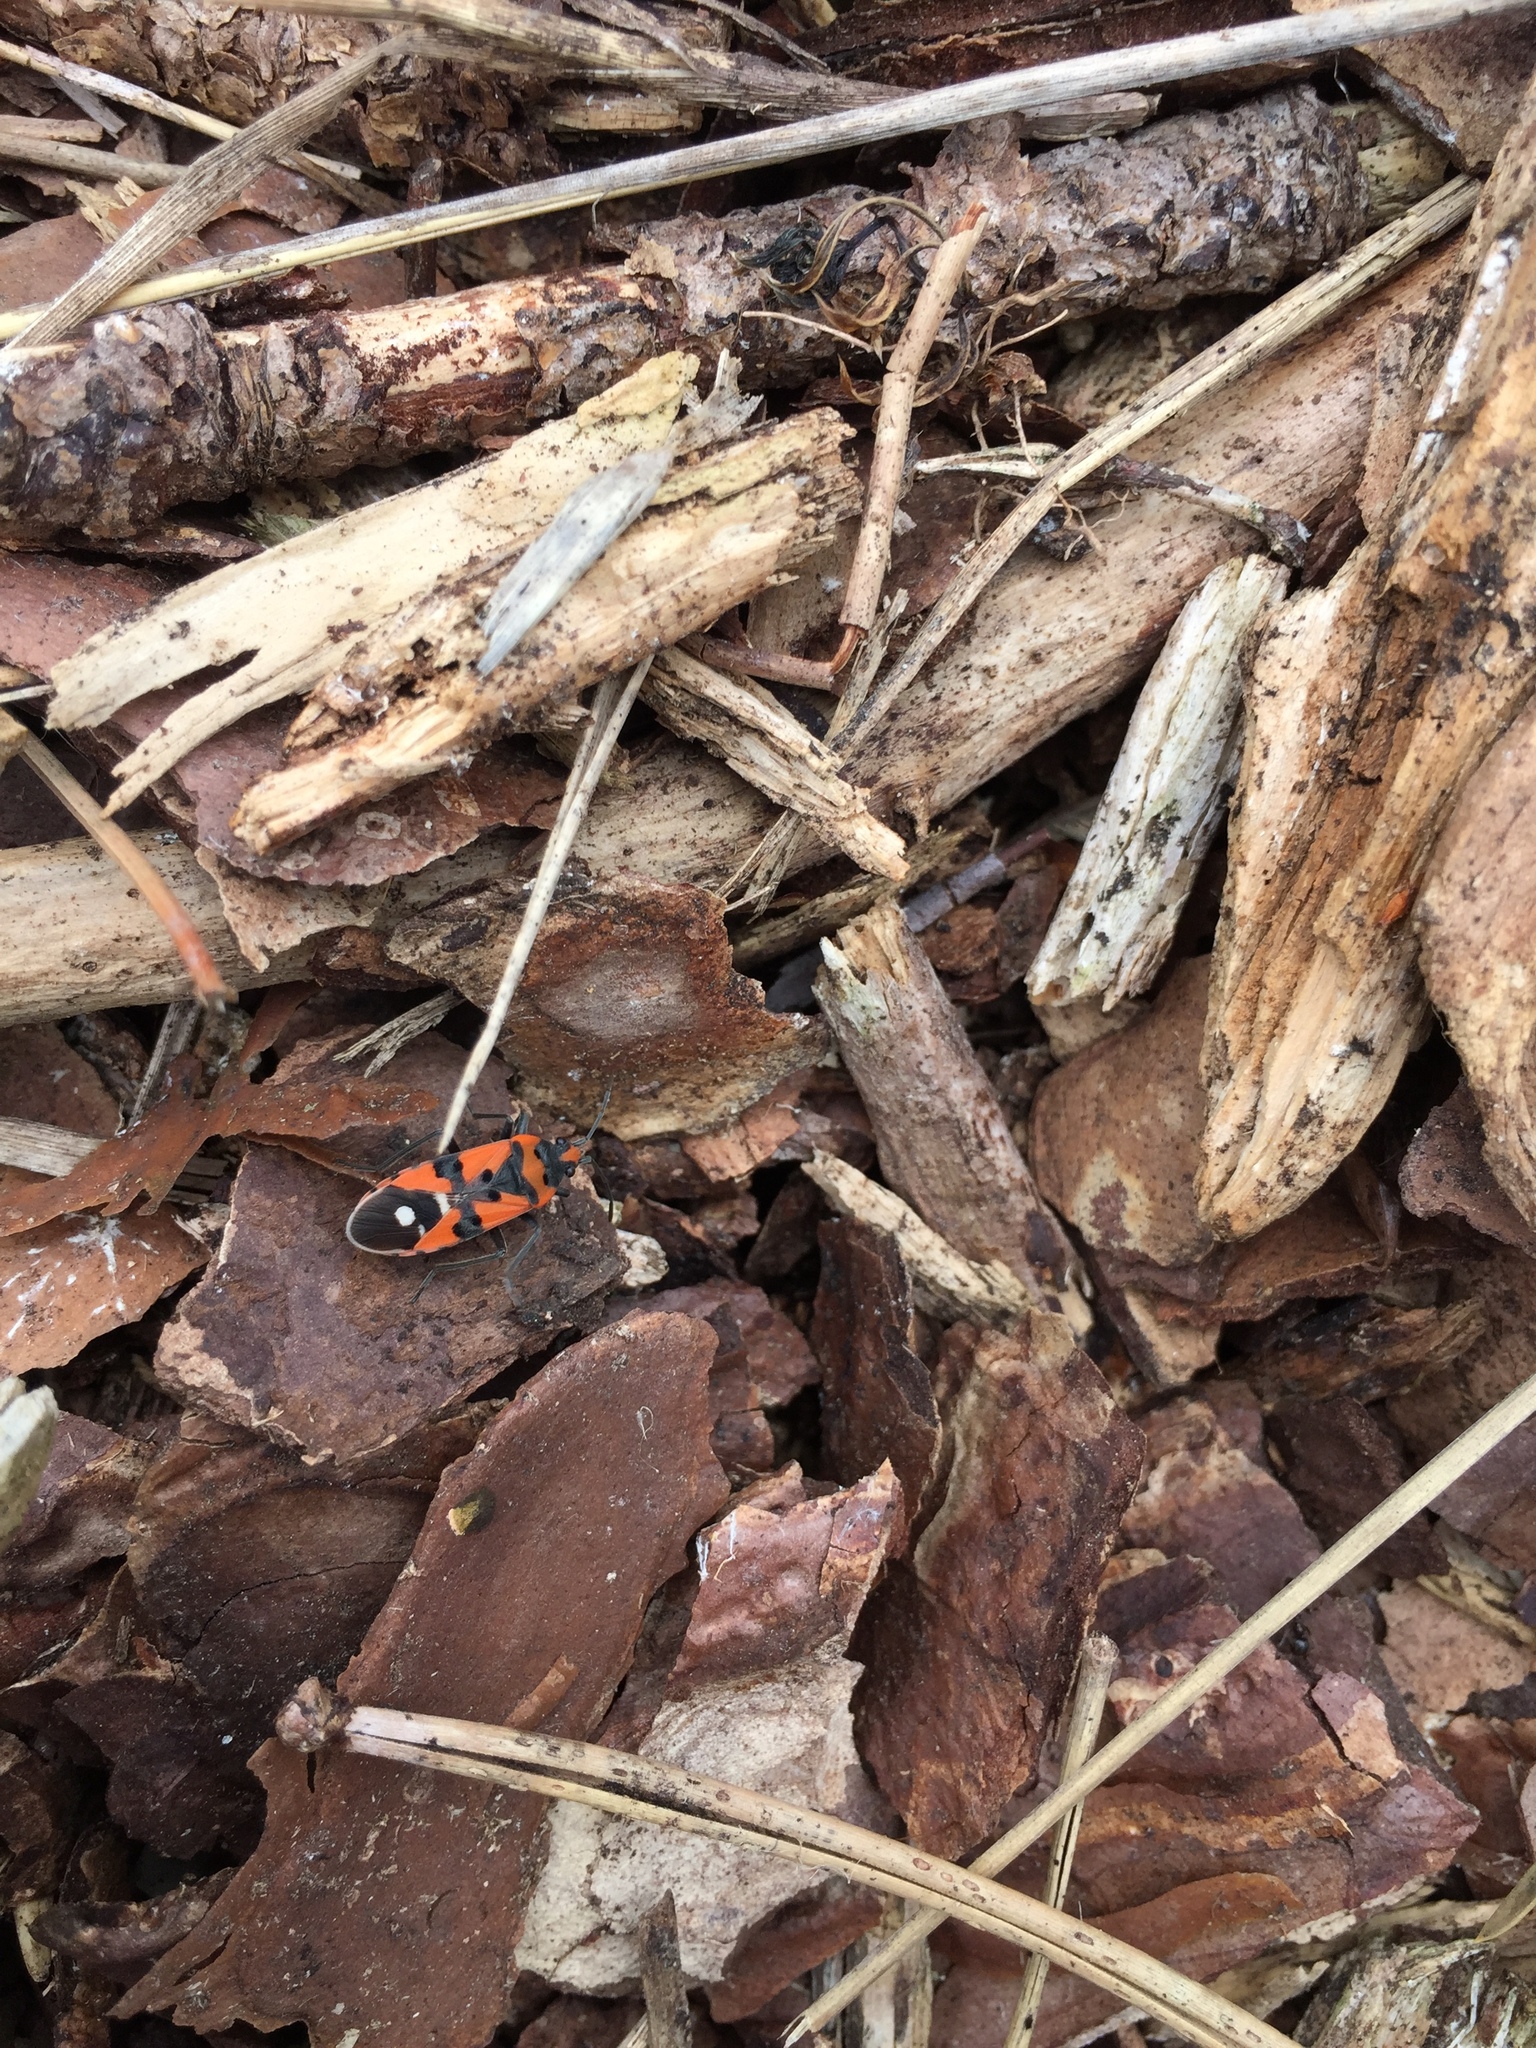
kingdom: Animalia
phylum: Arthropoda
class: Insecta
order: Hemiptera
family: Lygaeidae
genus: Lygaeus
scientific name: Lygaeus equestris
